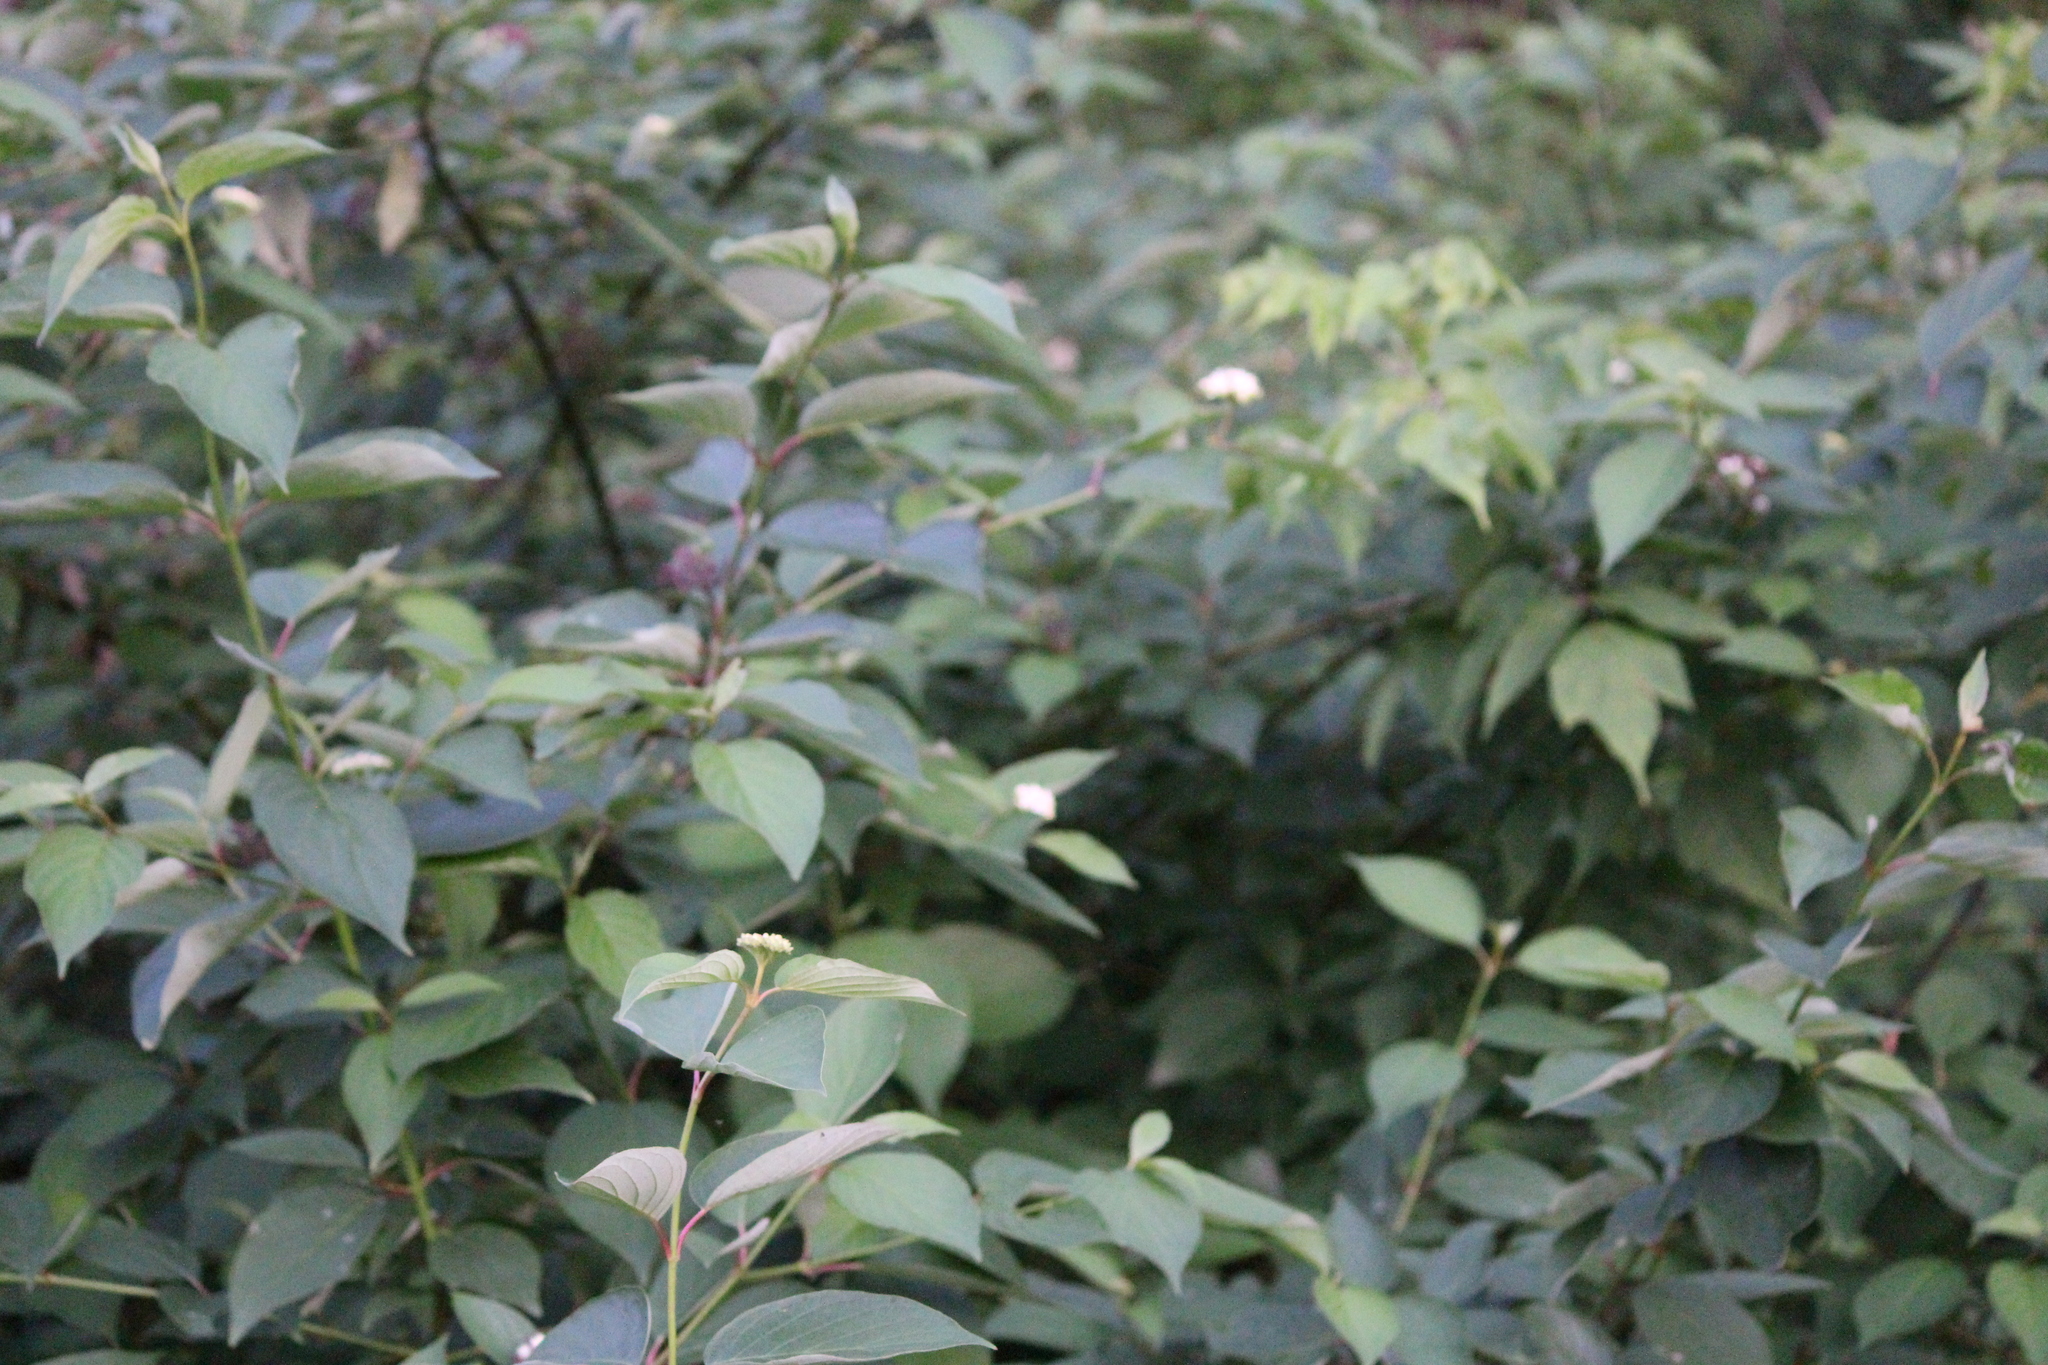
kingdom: Plantae
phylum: Tracheophyta
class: Magnoliopsida
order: Cornales
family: Cornaceae
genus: Cornus
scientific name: Cornus alba
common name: White dogwood
